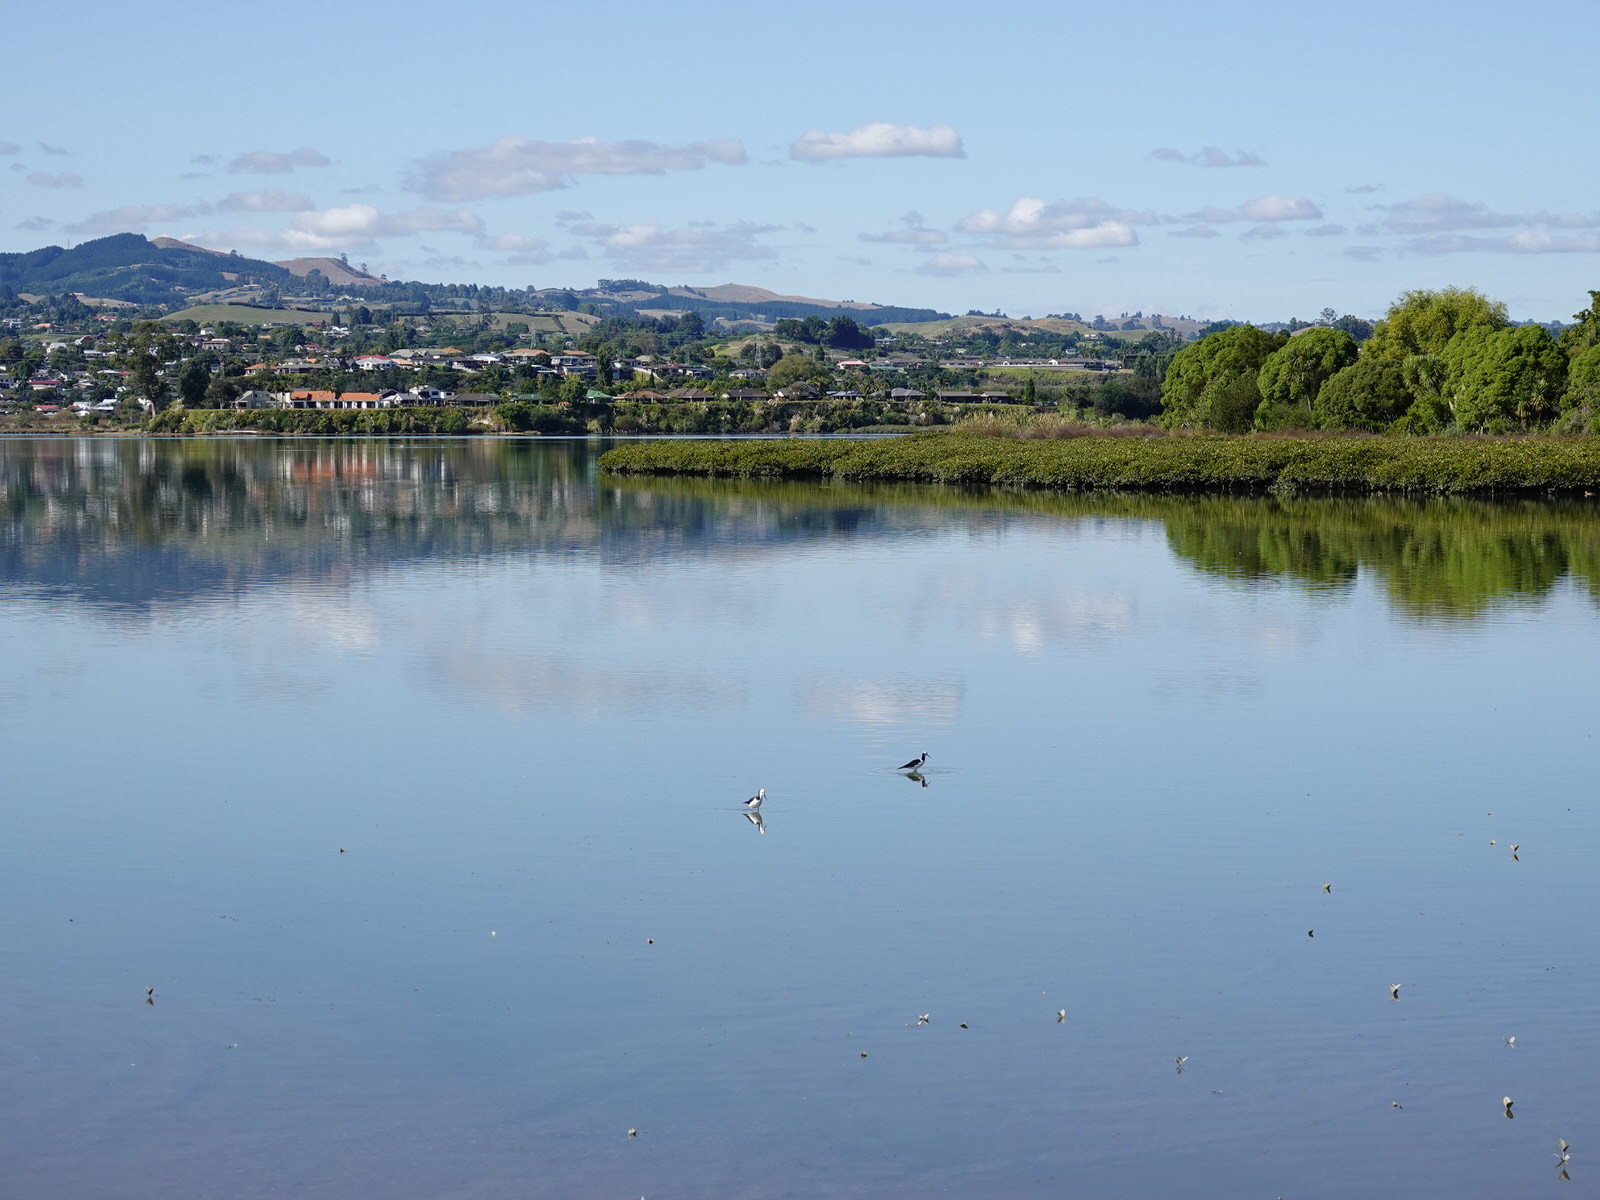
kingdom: Animalia
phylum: Chordata
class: Aves
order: Charadriiformes
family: Recurvirostridae
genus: Himantopus
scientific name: Himantopus leucocephalus
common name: White-headed stilt
